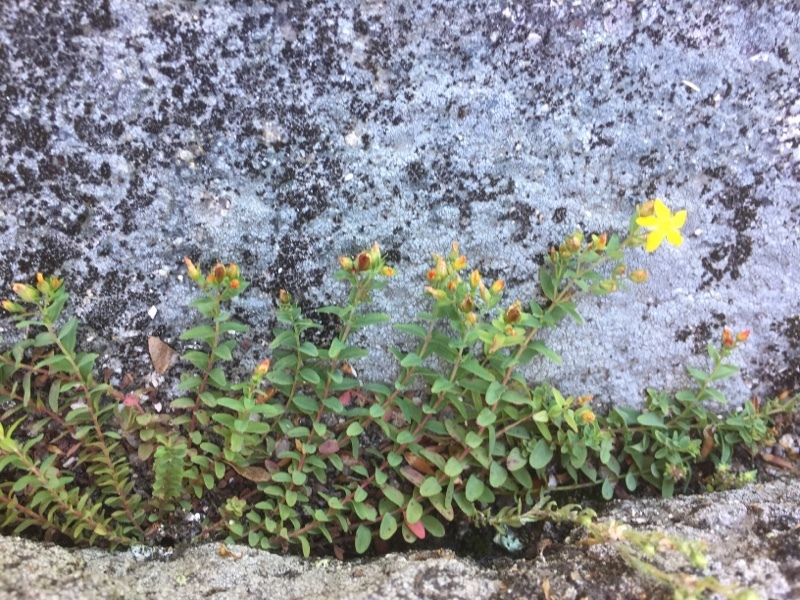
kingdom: Plantae
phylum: Tracheophyta
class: Magnoliopsida
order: Malpighiales
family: Hypericaceae
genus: Hypericum
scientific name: Hypericum humifusum
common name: Trailing st. john's-wort
